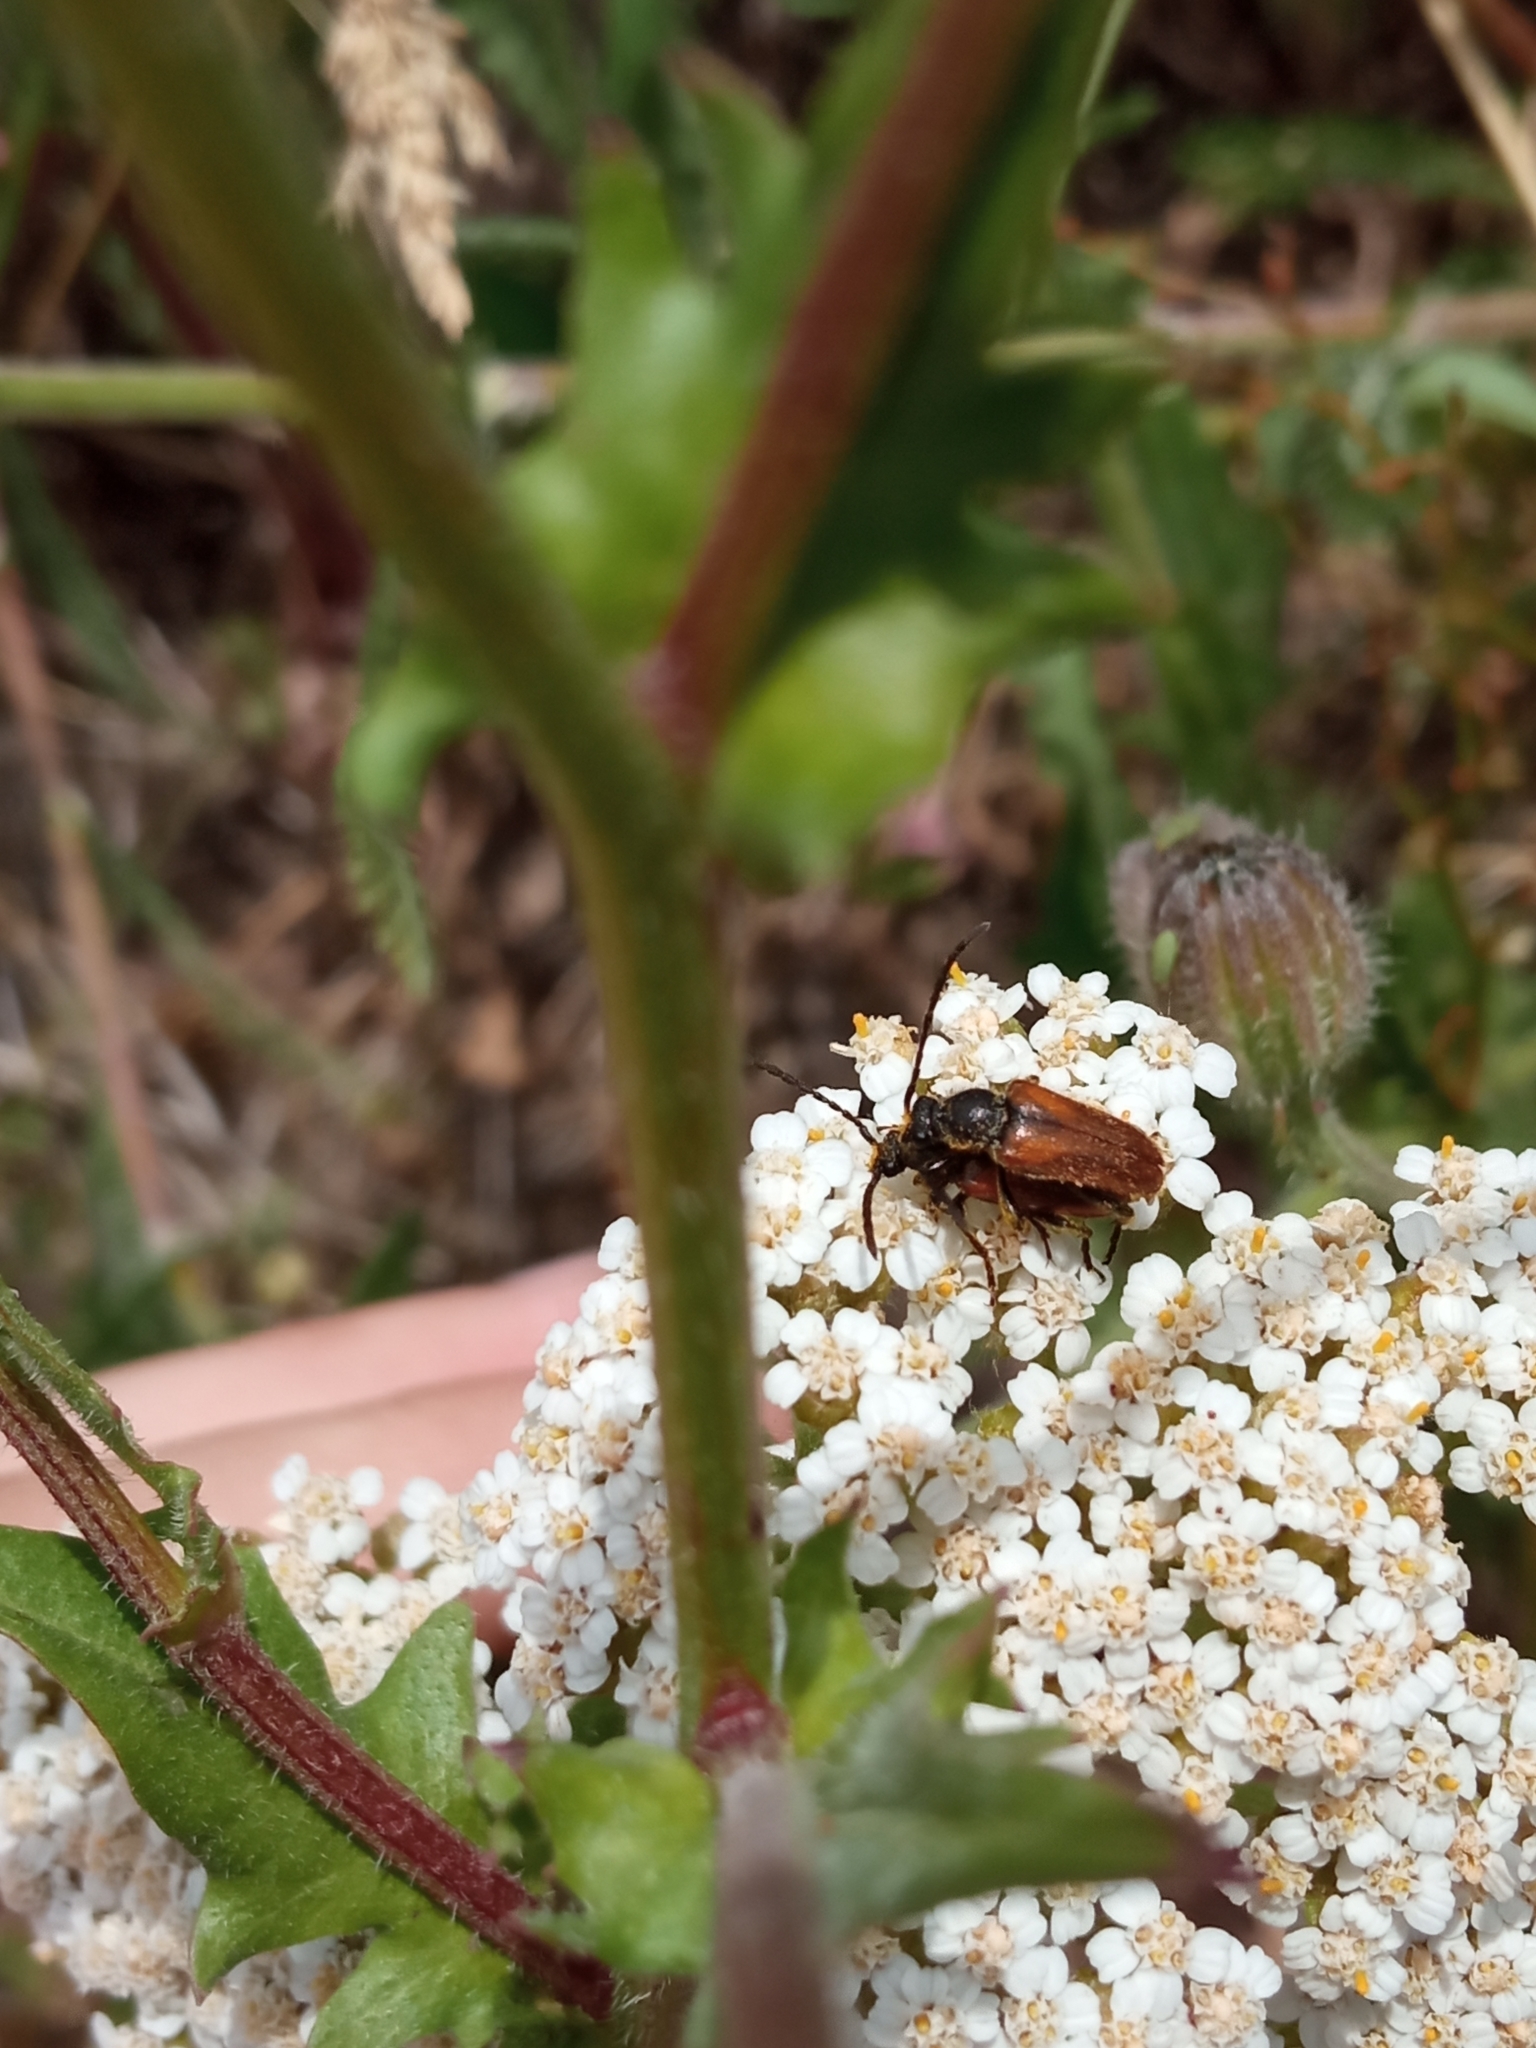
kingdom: Animalia
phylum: Arthropoda
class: Insecta
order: Coleoptera
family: Cerambycidae
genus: Pseudovadonia
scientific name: Pseudovadonia livida
